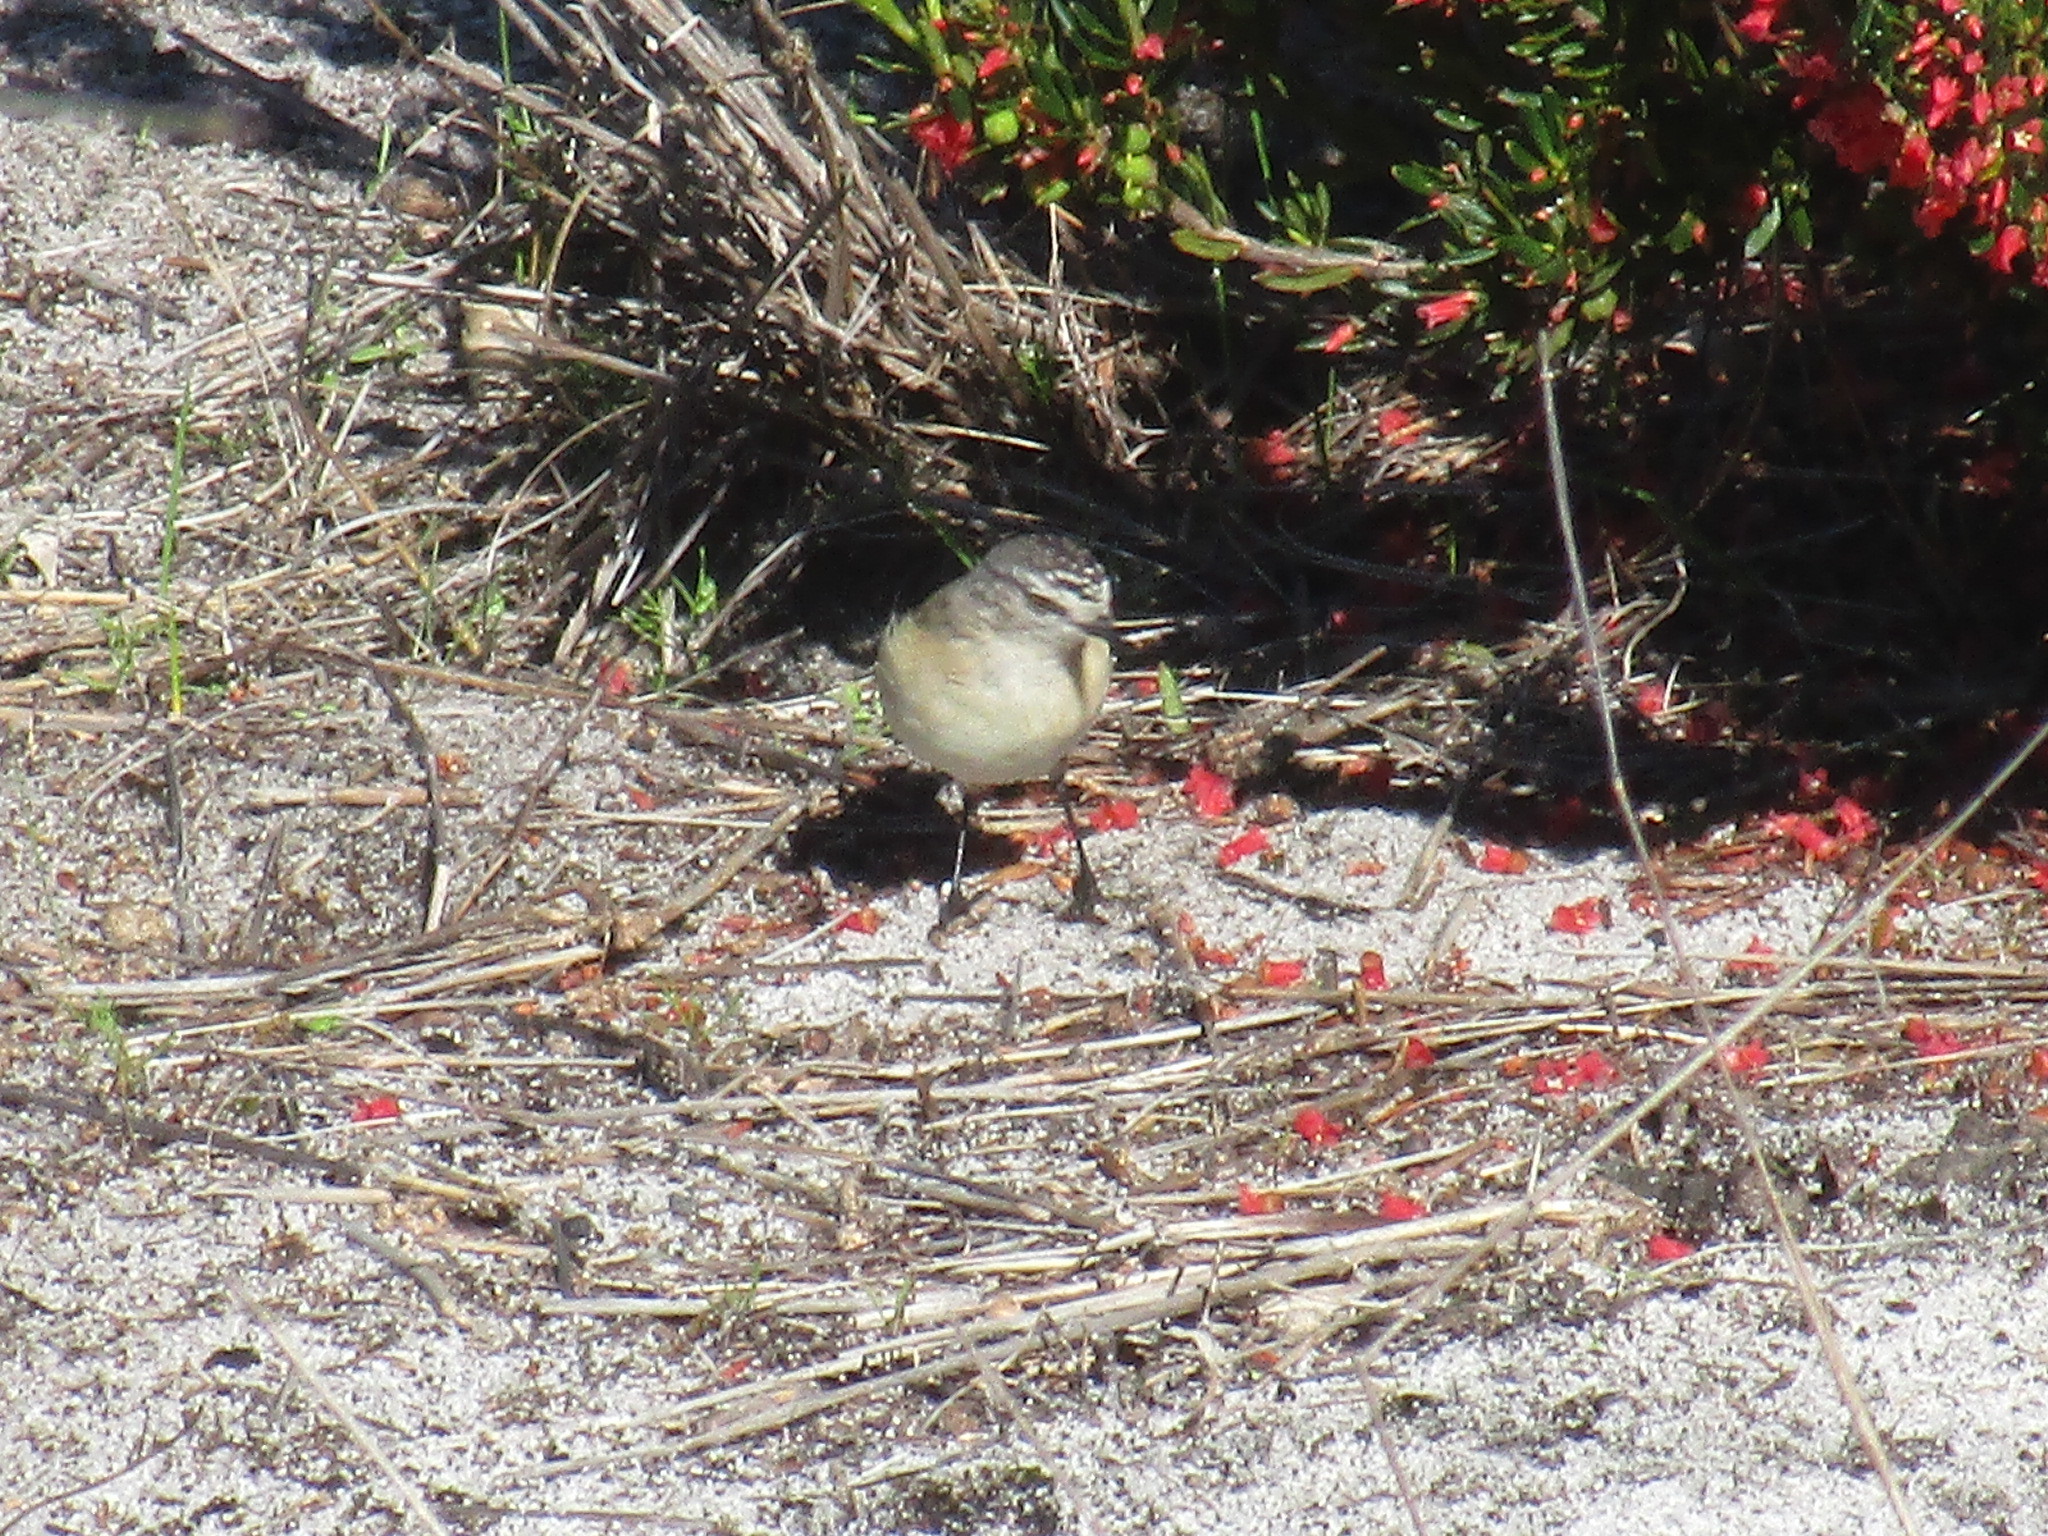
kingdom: Animalia
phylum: Chordata
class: Aves
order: Passeriformes
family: Acanthizidae
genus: Acanthiza
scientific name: Acanthiza chrysorrhoa
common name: Yellow-rumped thornbill
